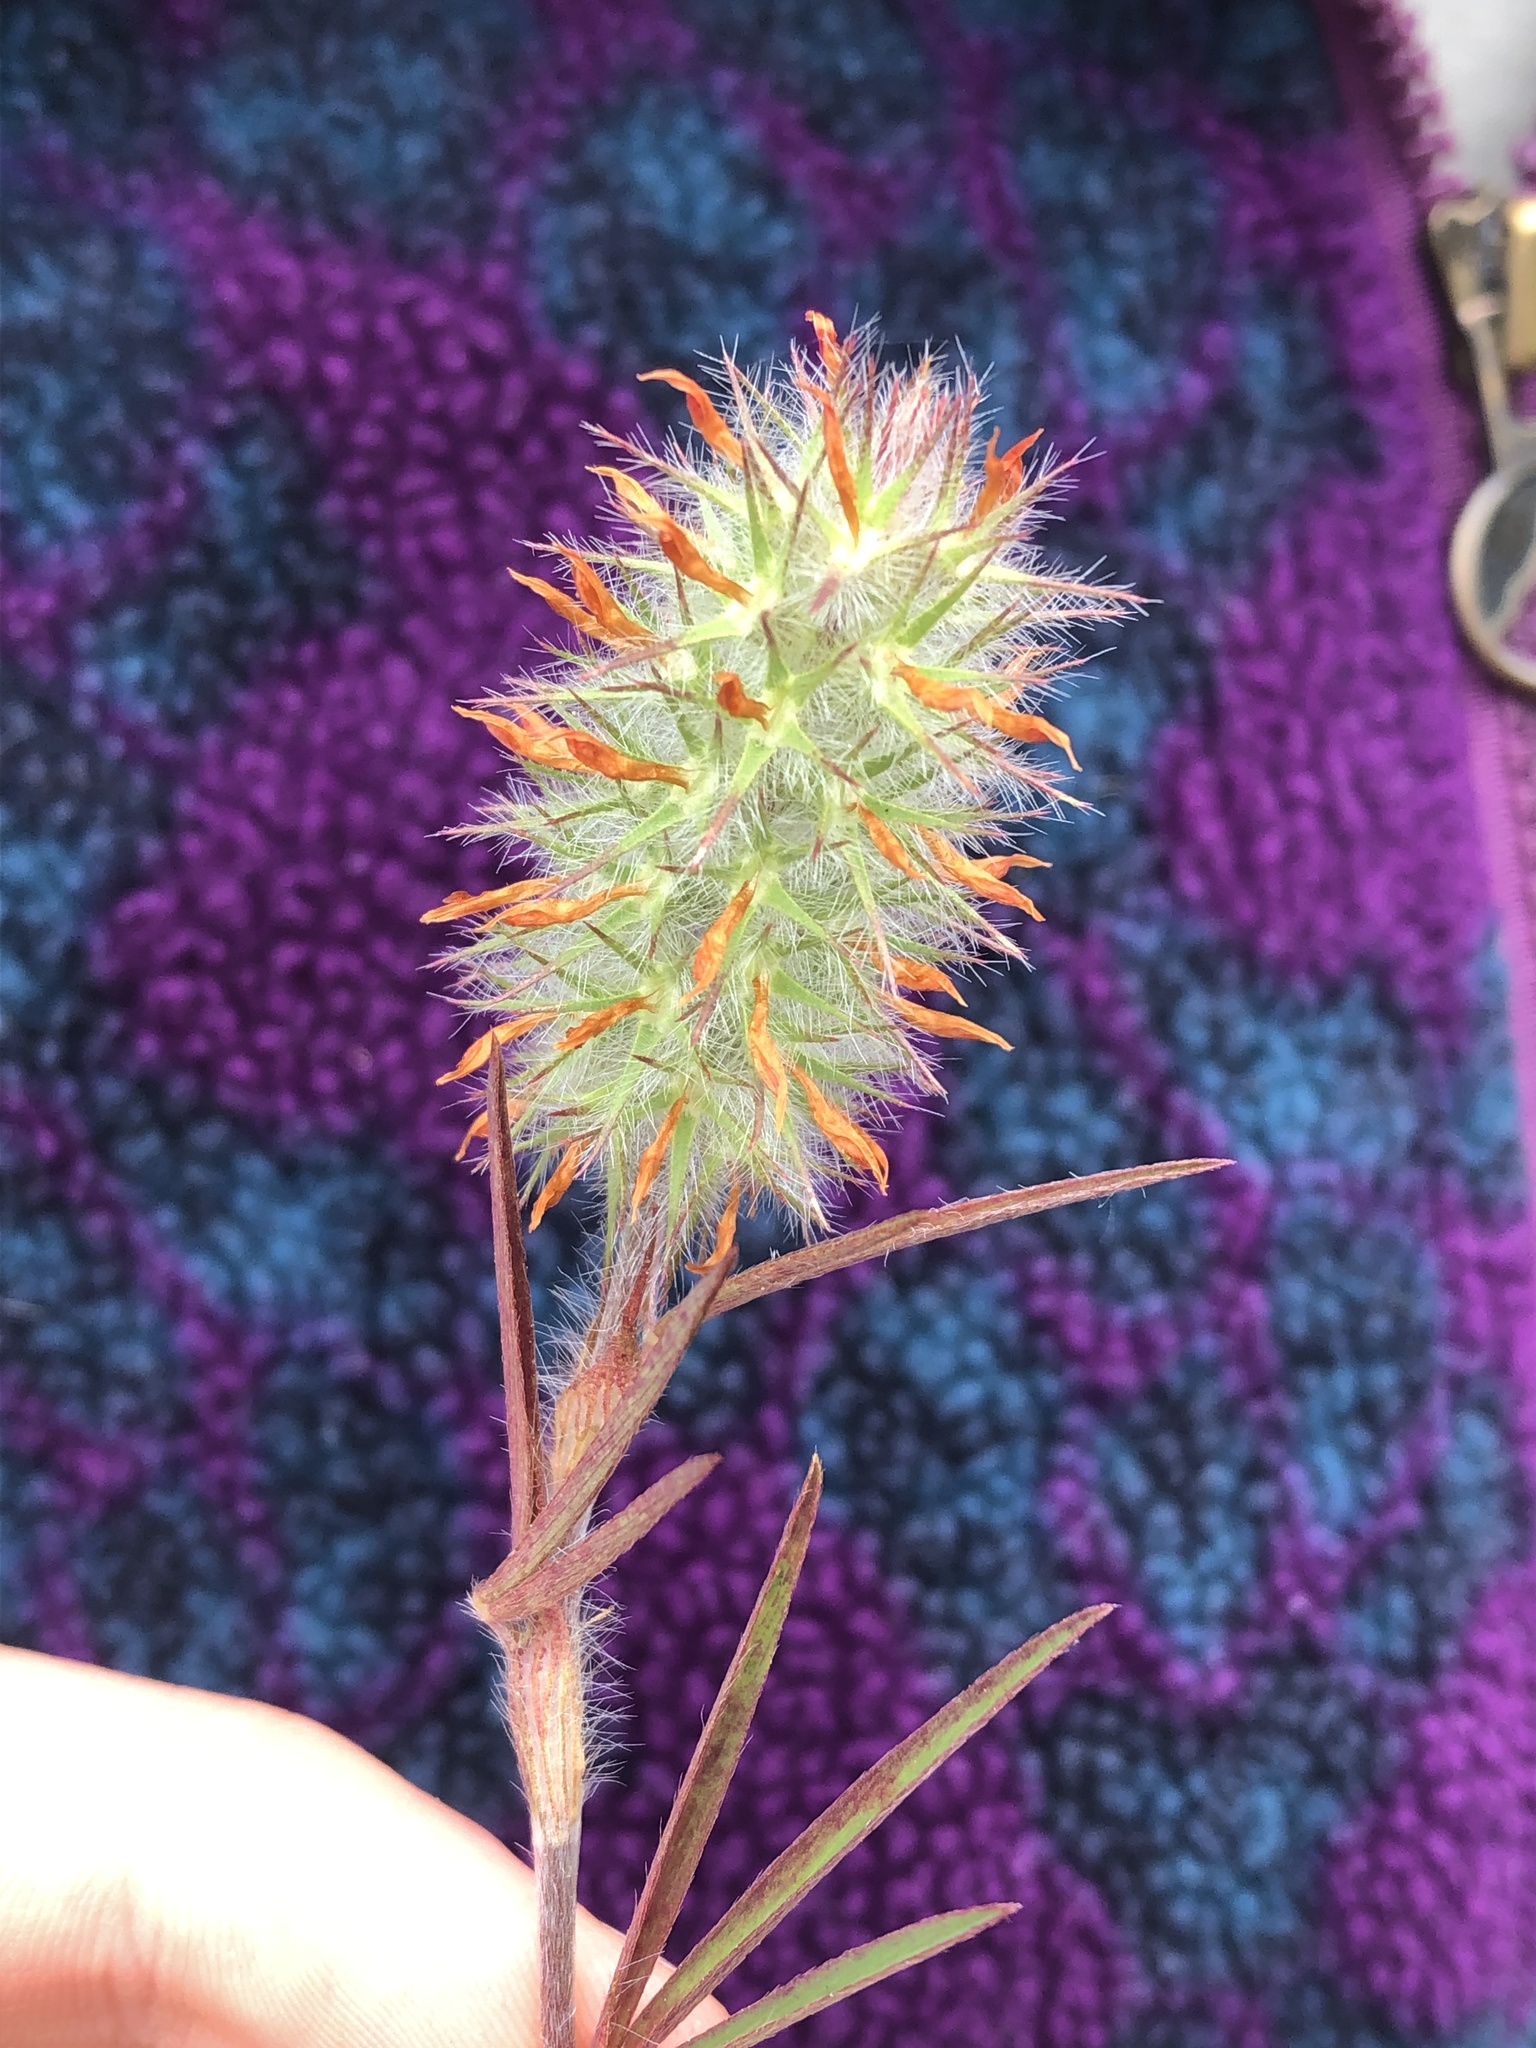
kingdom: Plantae
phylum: Tracheophyta
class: Magnoliopsida
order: Fabales
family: Fabaceae
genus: Trifolium
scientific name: Trifolium angustifolium
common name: Narrow clover
